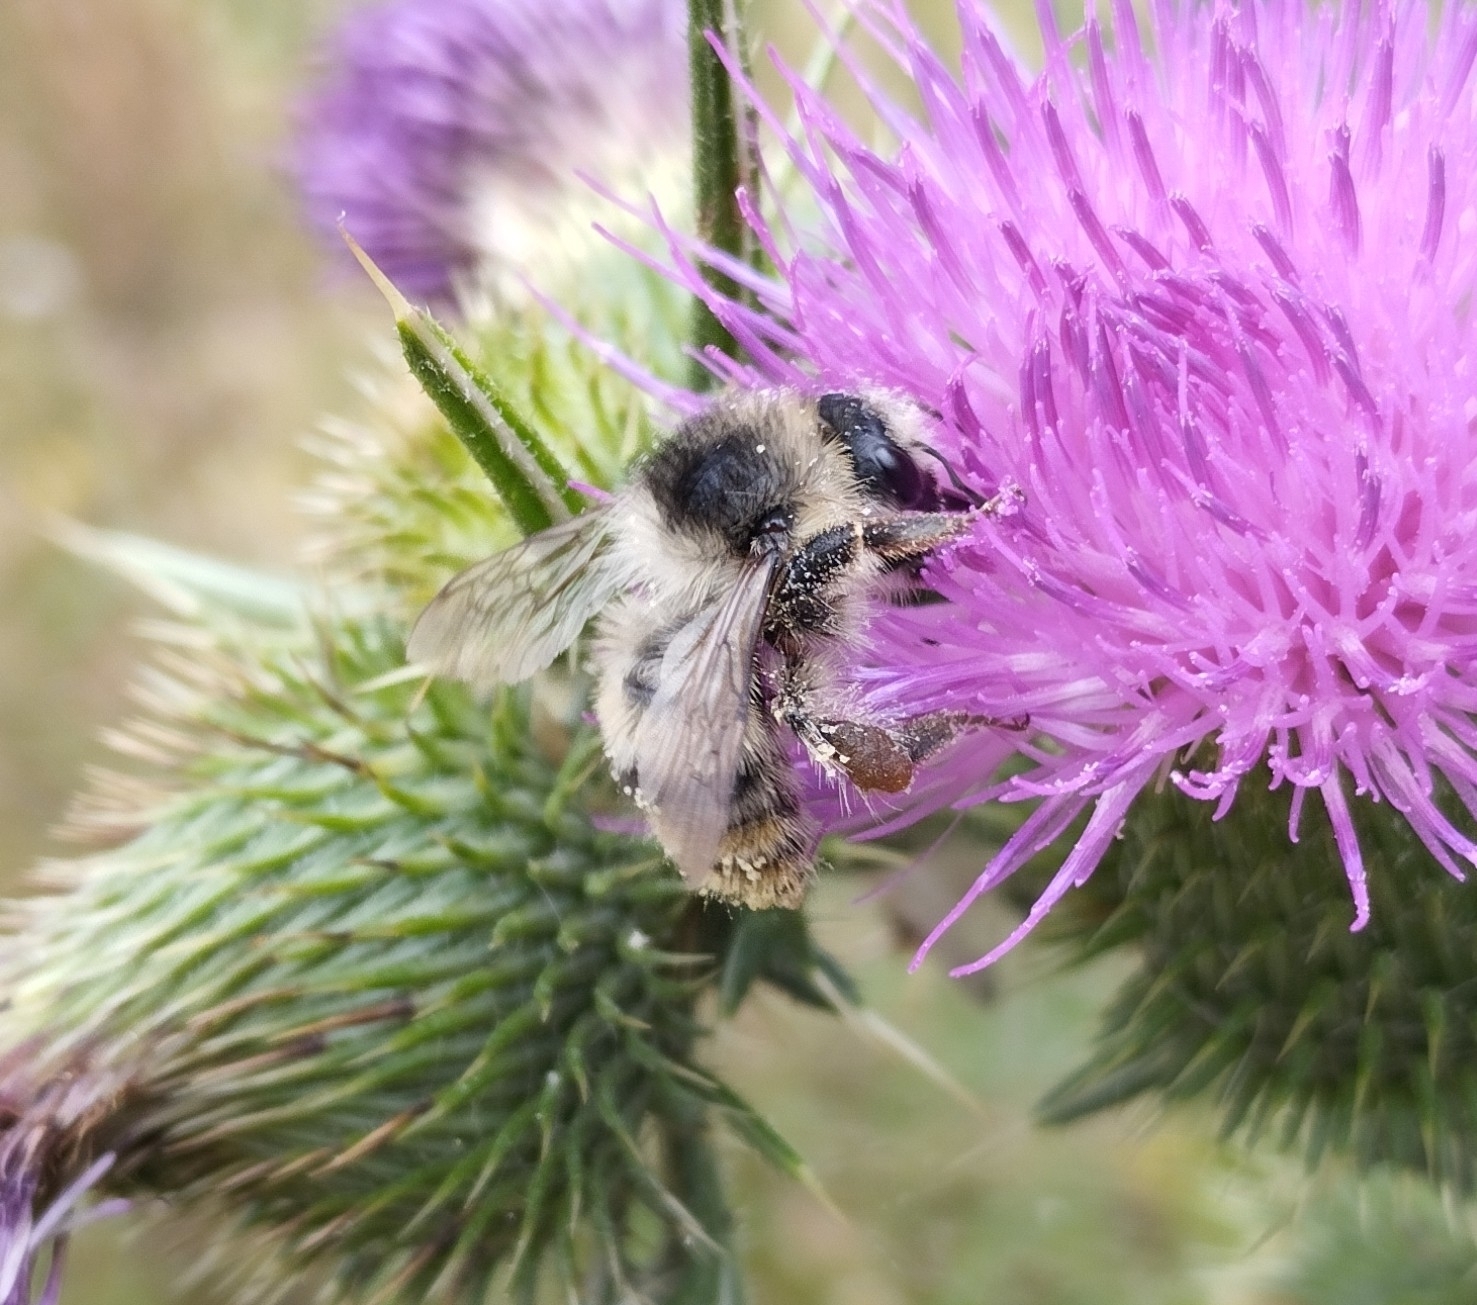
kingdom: Animalia
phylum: Arthropoda
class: Insecta
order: Hymenoptera
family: Apidae
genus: Bombus
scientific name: Bombus sylvarum
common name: Shrill carder bee
